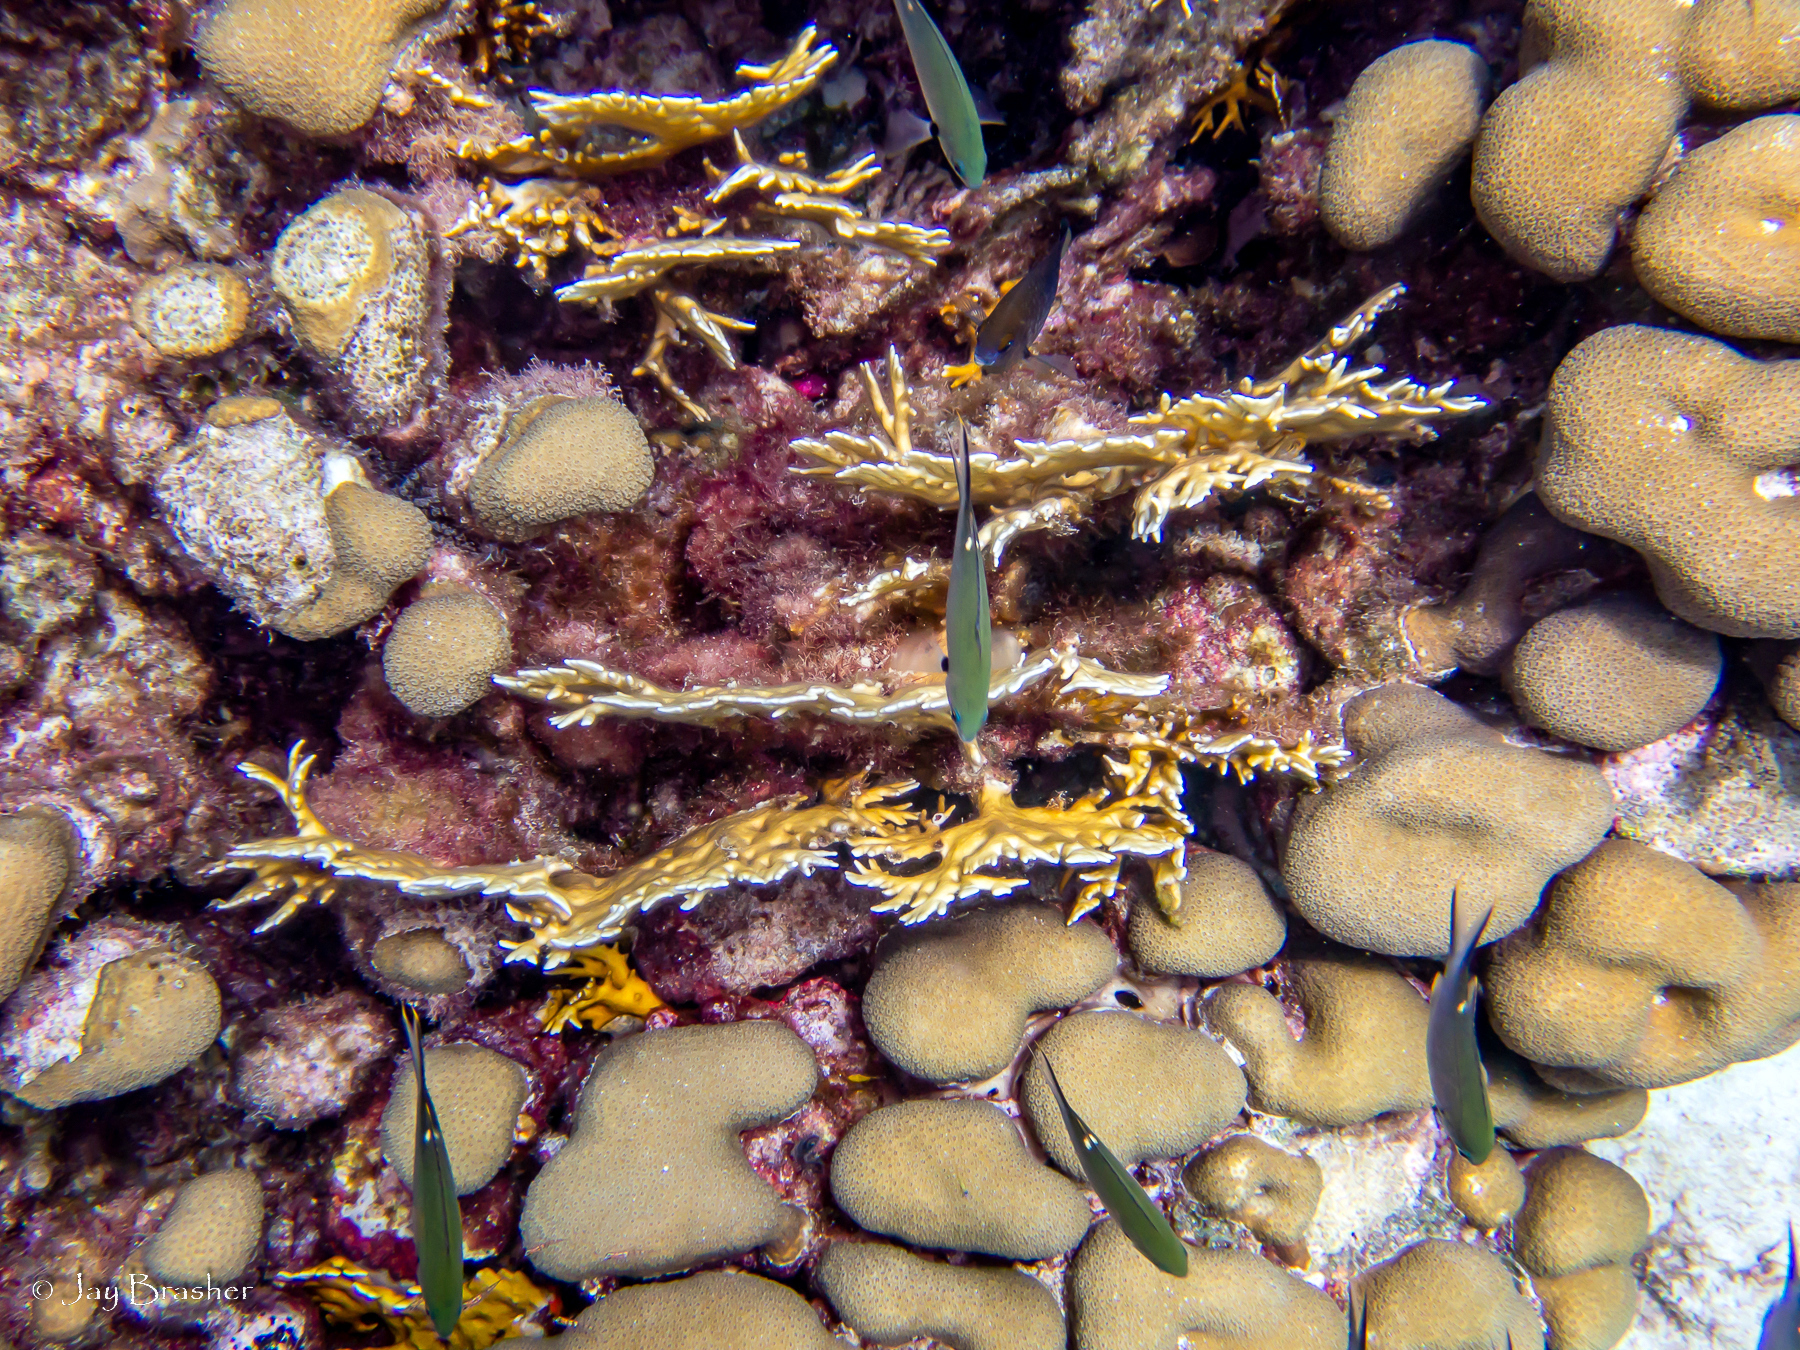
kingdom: Animalia
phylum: Cnidaria
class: Anthozoa
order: Scleractinia
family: Merulinidae
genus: Orbicella
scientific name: Orbicella annularis
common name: Boulder star coral
